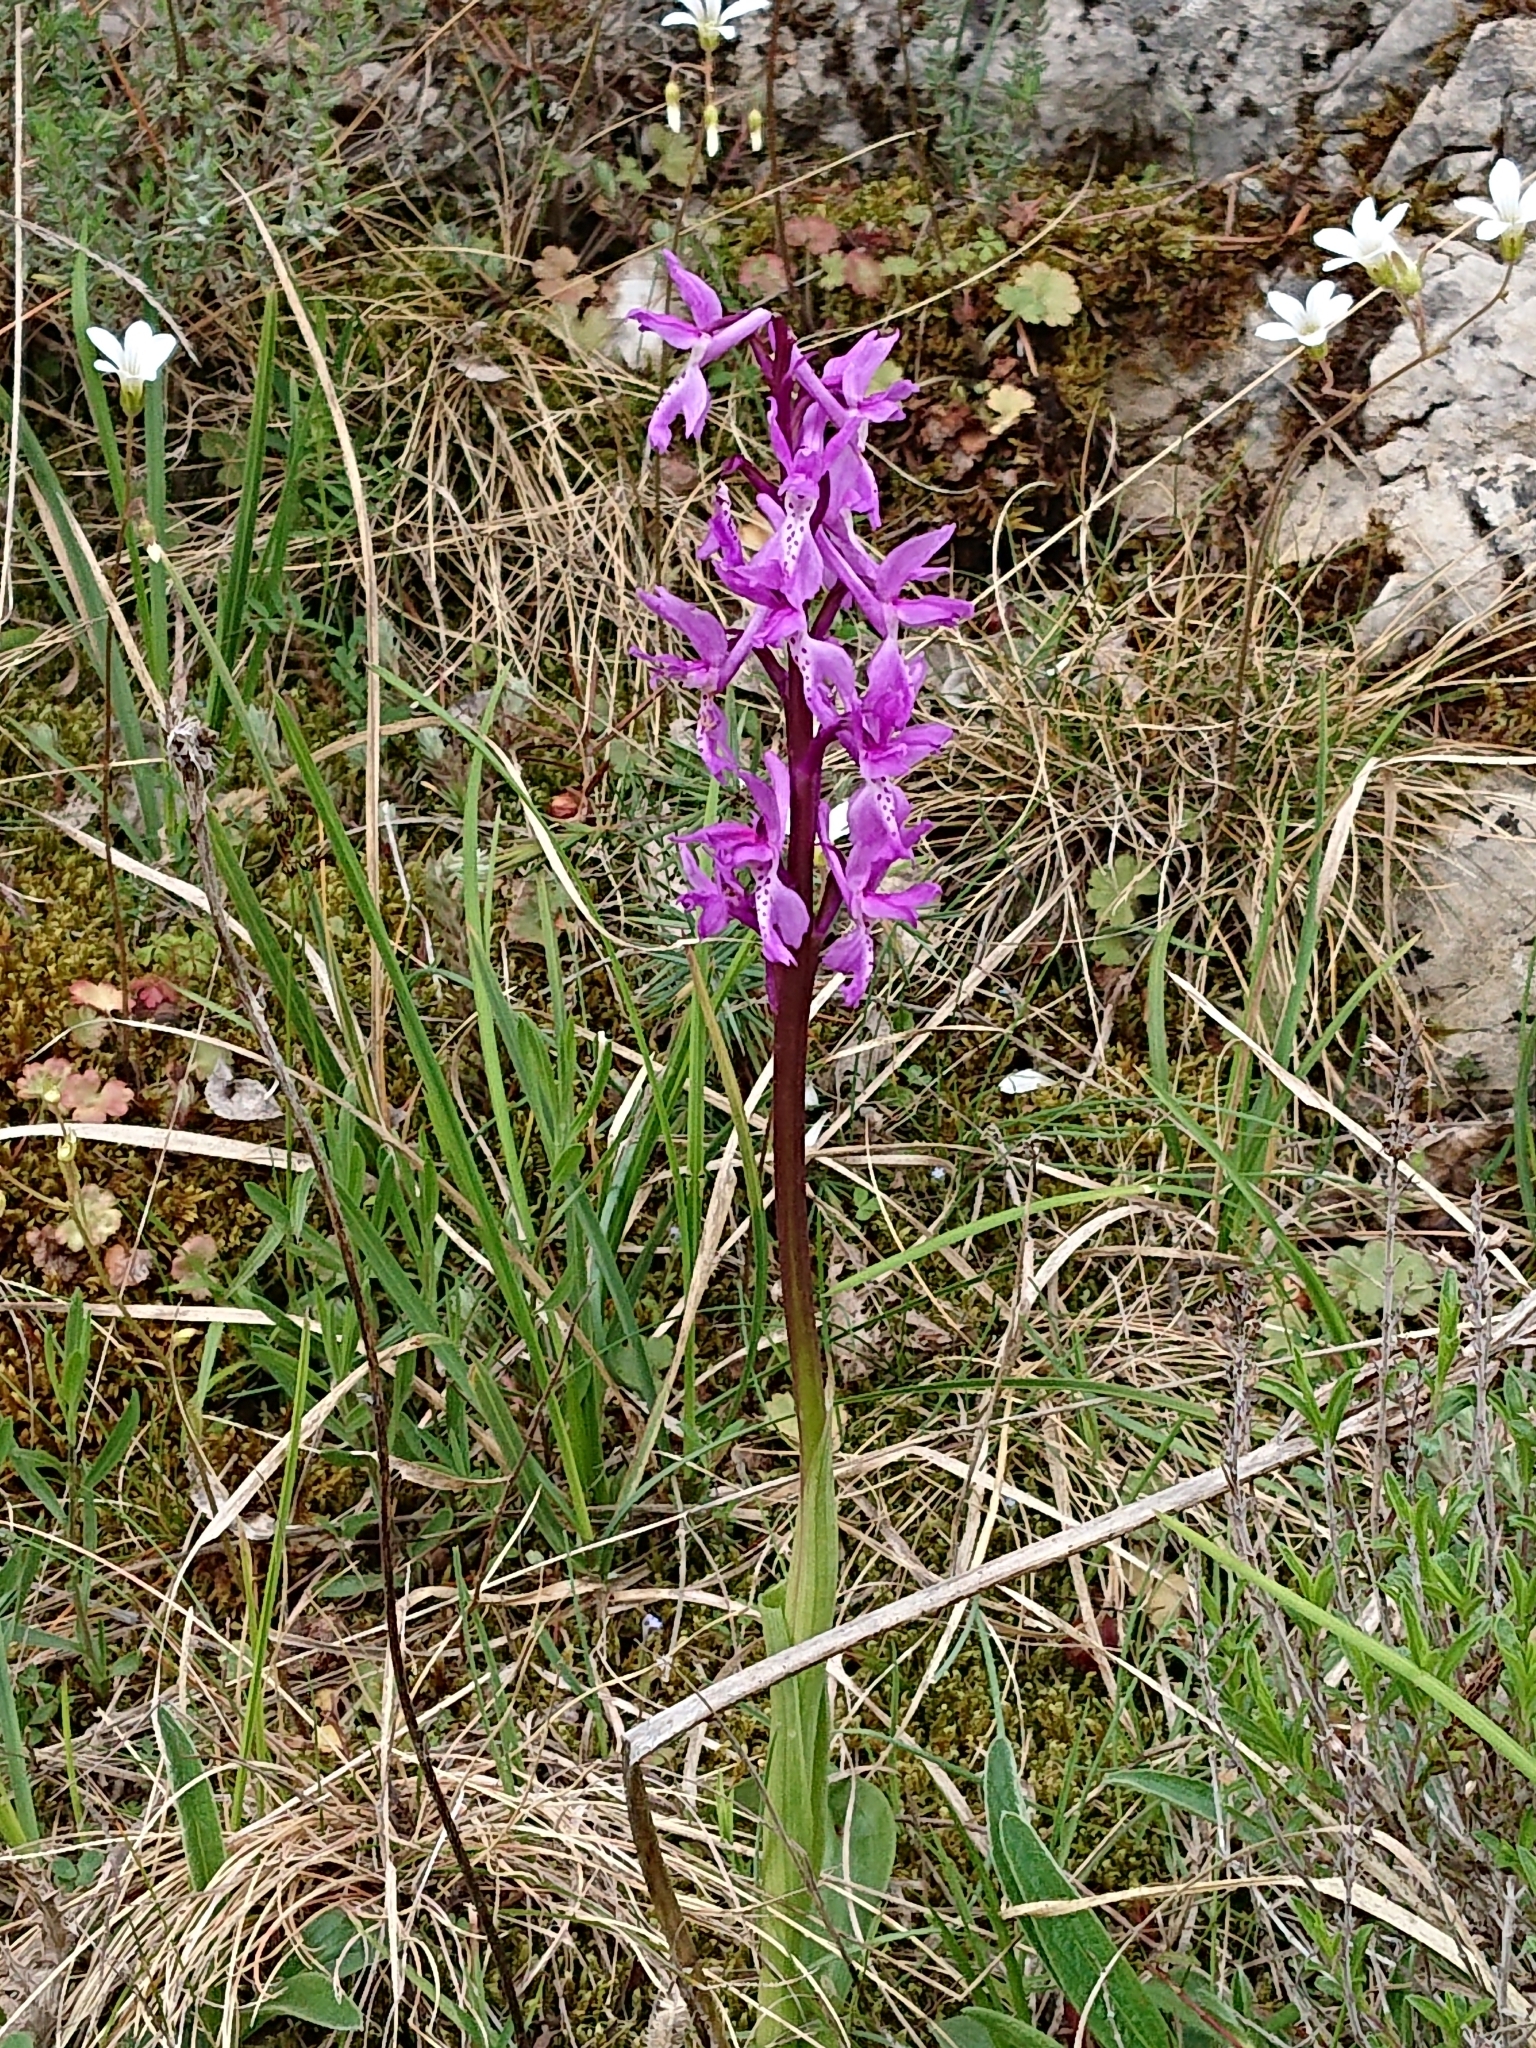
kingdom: Plantae
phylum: Tracheophyta
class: Liliopsida
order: Asparagales
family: Orchidaceae
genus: Orchis
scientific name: Orchis mascula
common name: Early-purple orchid
